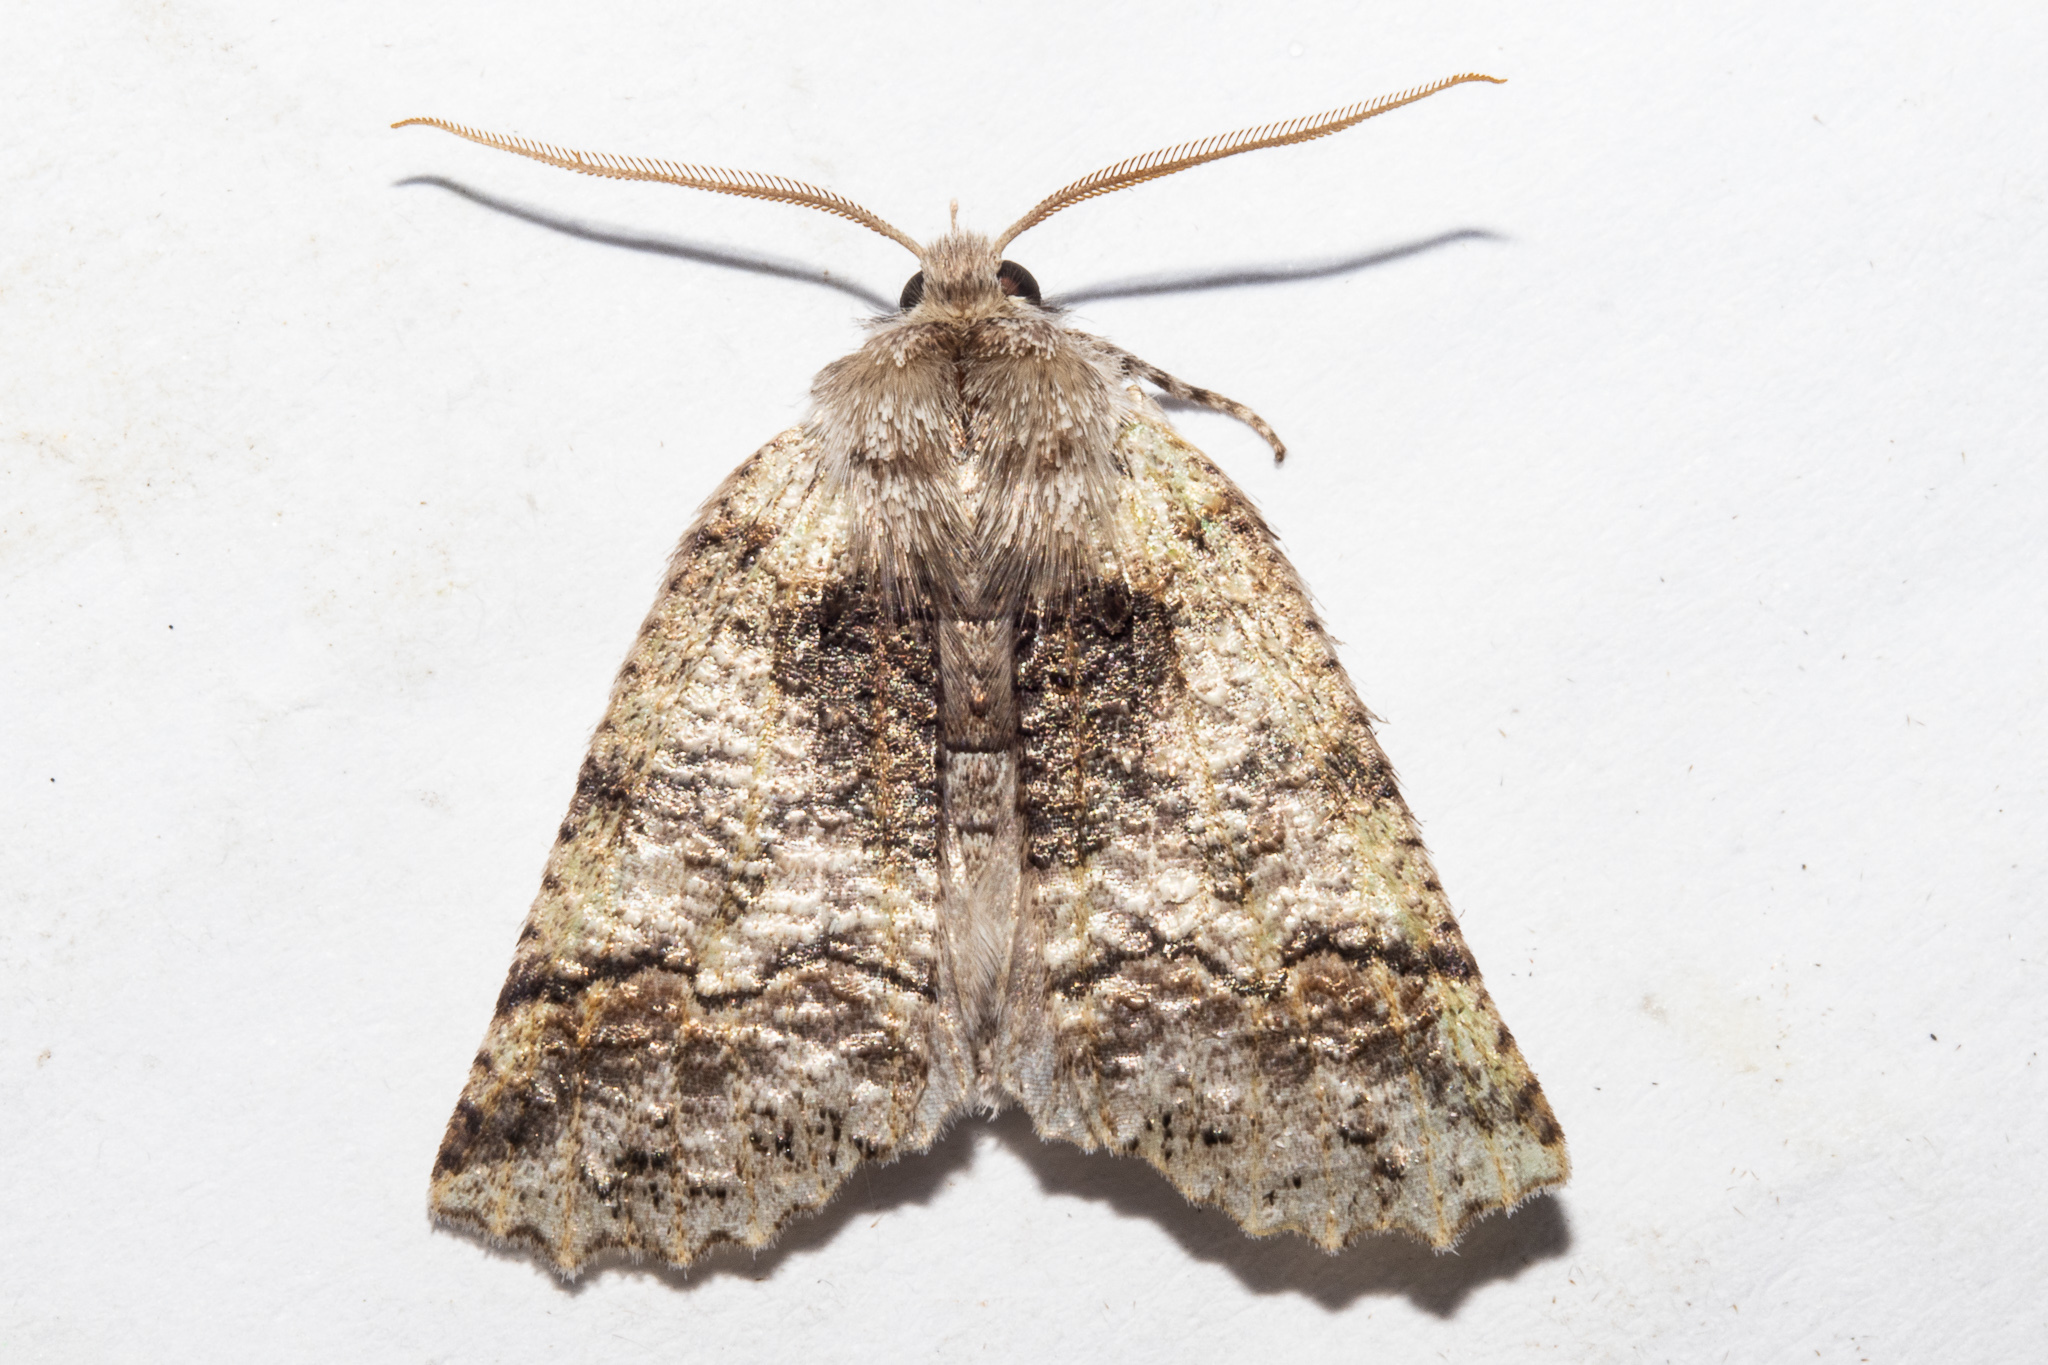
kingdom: Animalia
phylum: Arthropoda
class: Insecta
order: Lepidoptera
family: Geometridae
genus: Declana
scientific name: Declana floccosa
